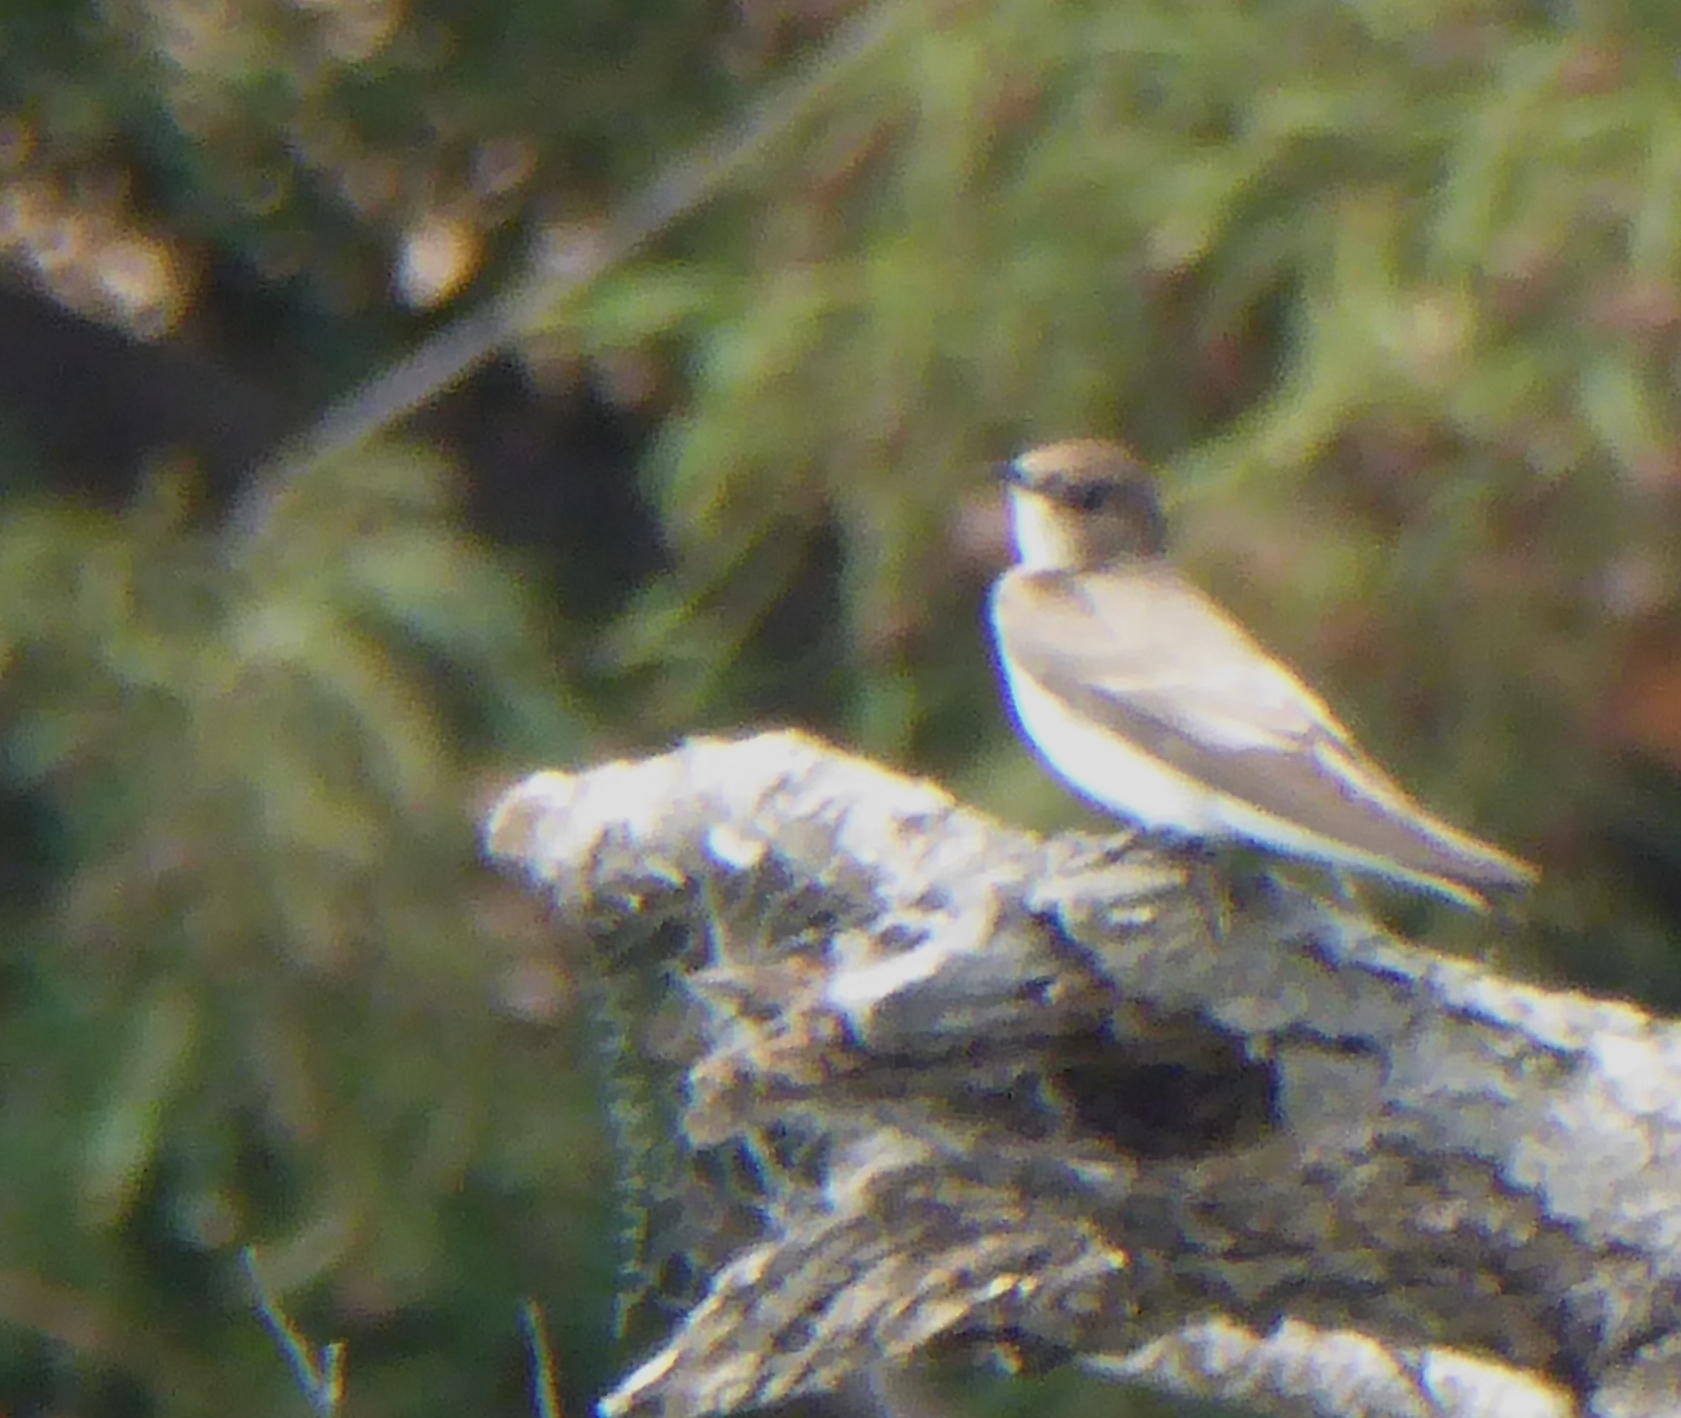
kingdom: Animalia
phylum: Chordata
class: Aves
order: Passeriformes
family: Hirundinidae
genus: Stelgidopteryx
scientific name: Stelgidopteryx serripennis
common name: Northern rough-winged swallow
